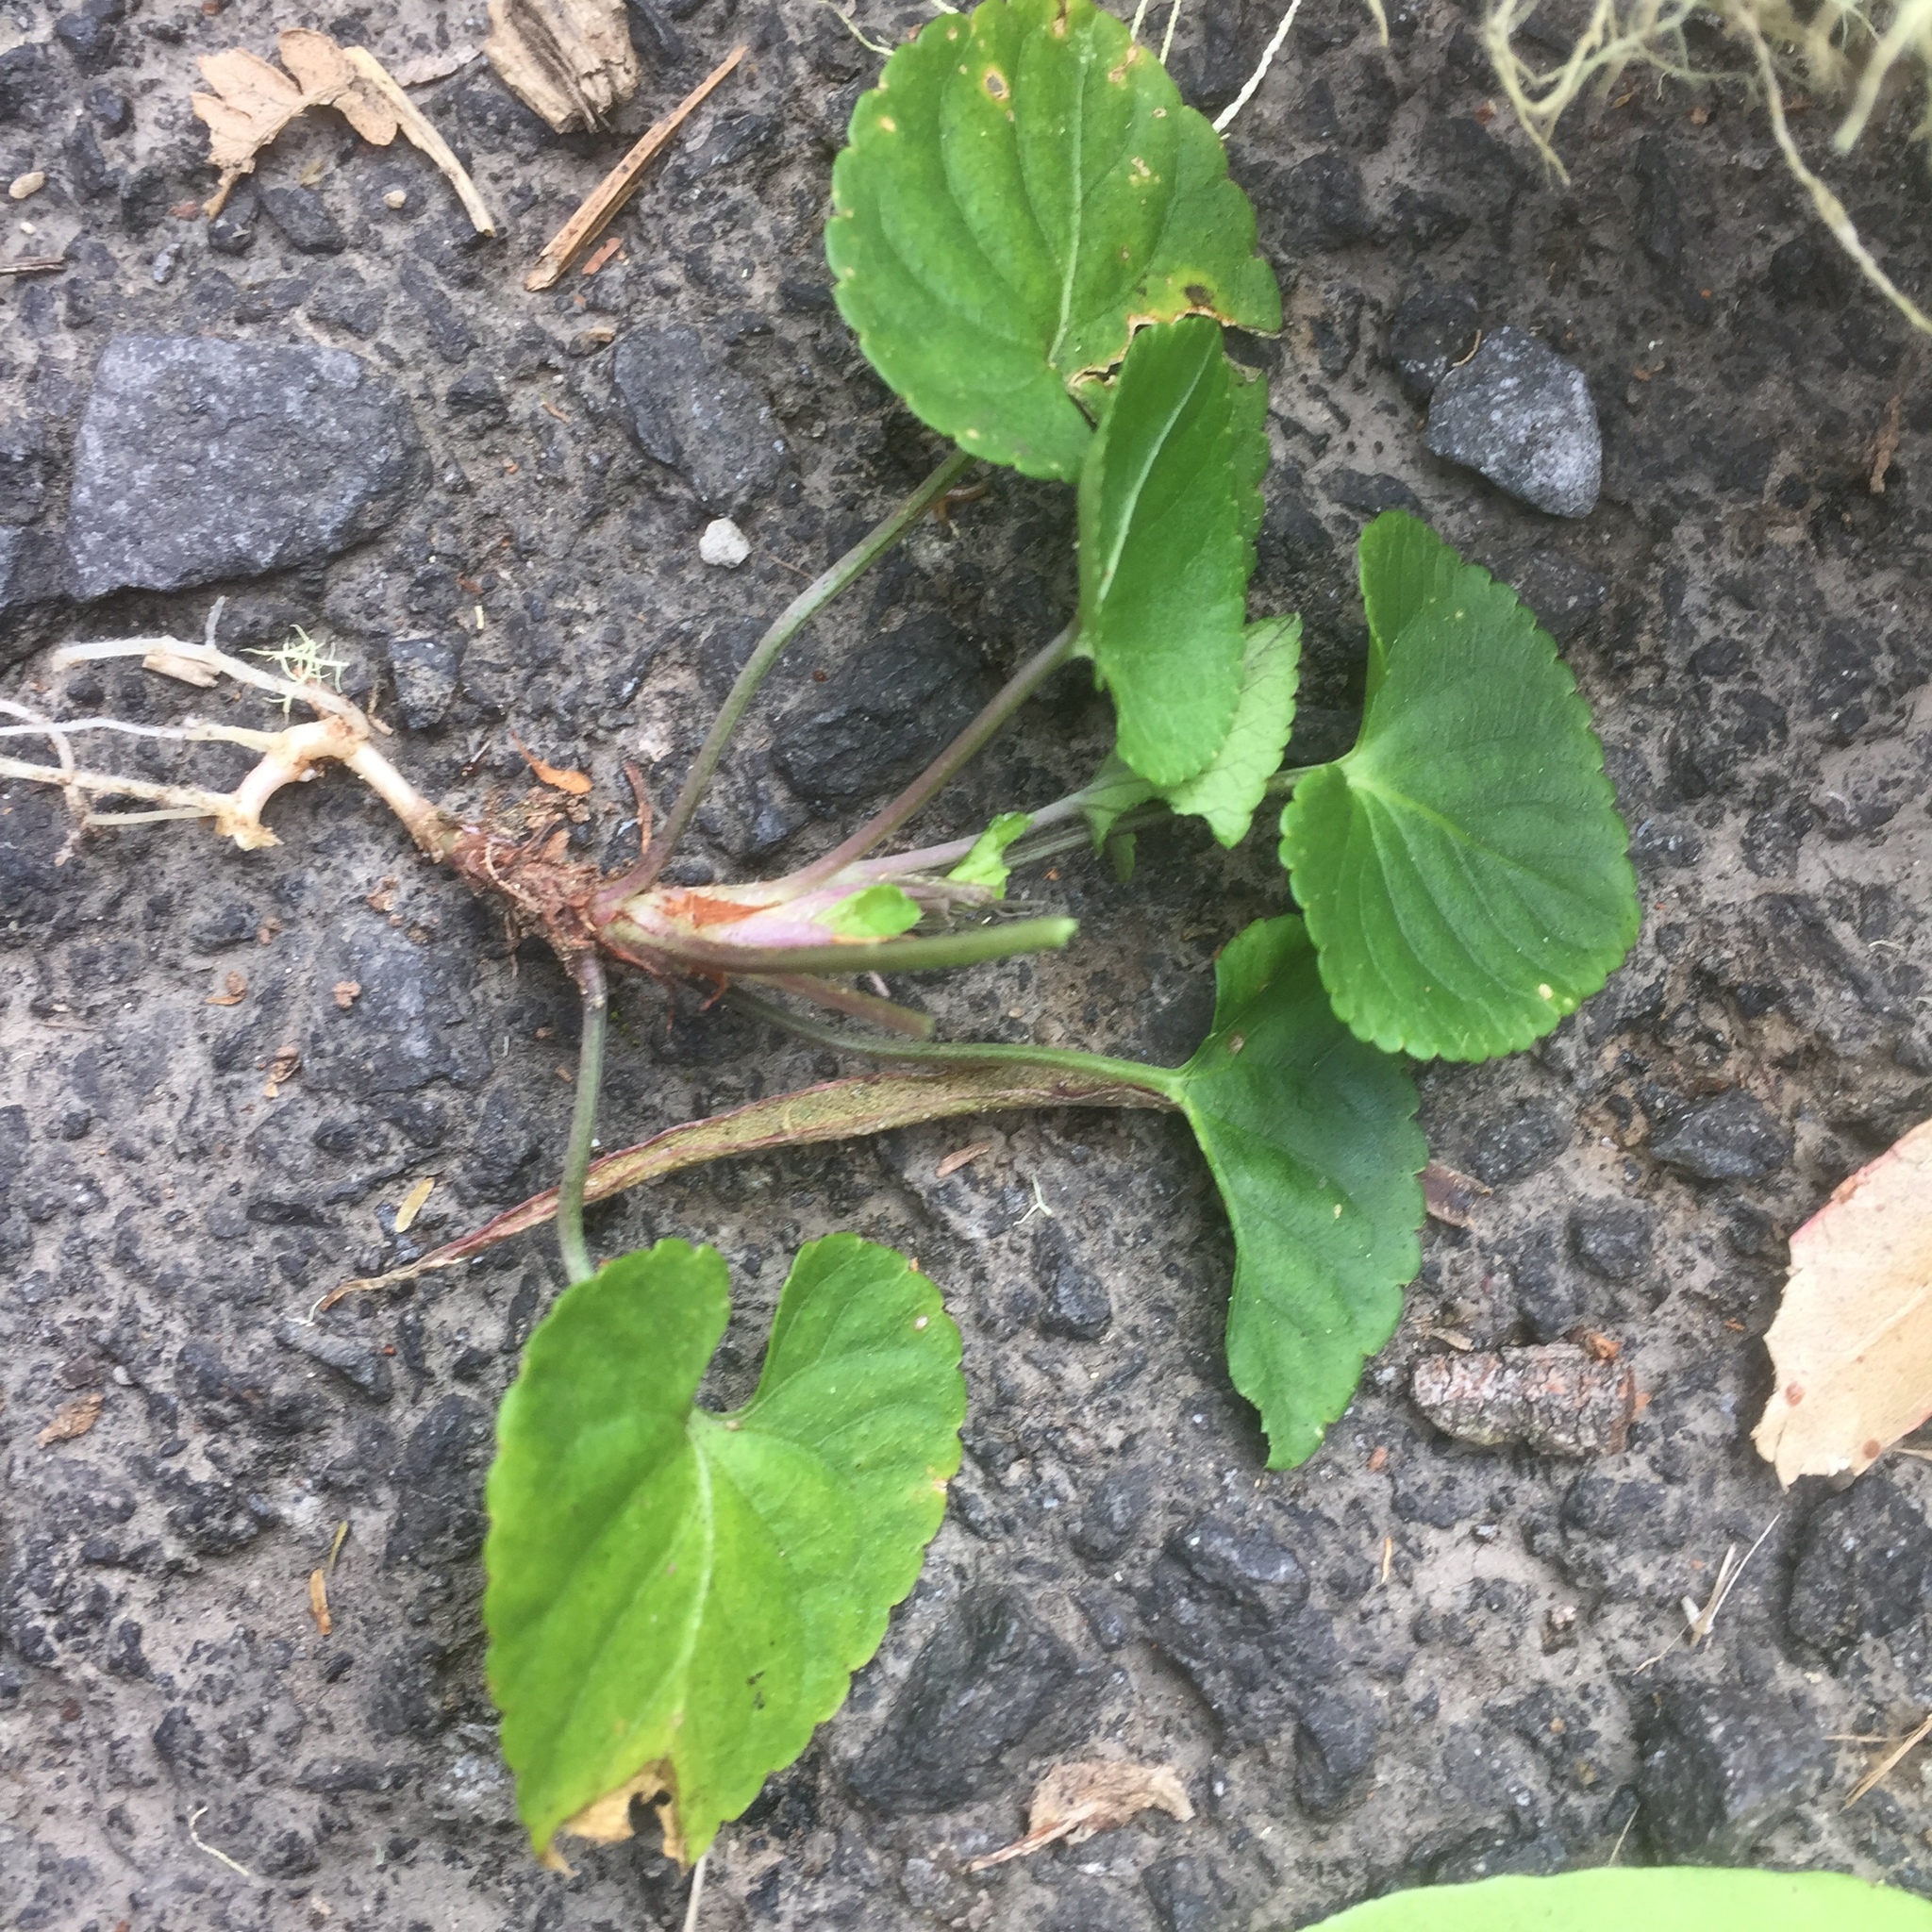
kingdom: Plantae
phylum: Tracheophyta
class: Magnoliopsida
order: Malpighiales
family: Violaceae
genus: Viola
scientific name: Viola odorata
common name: Sweet violet
